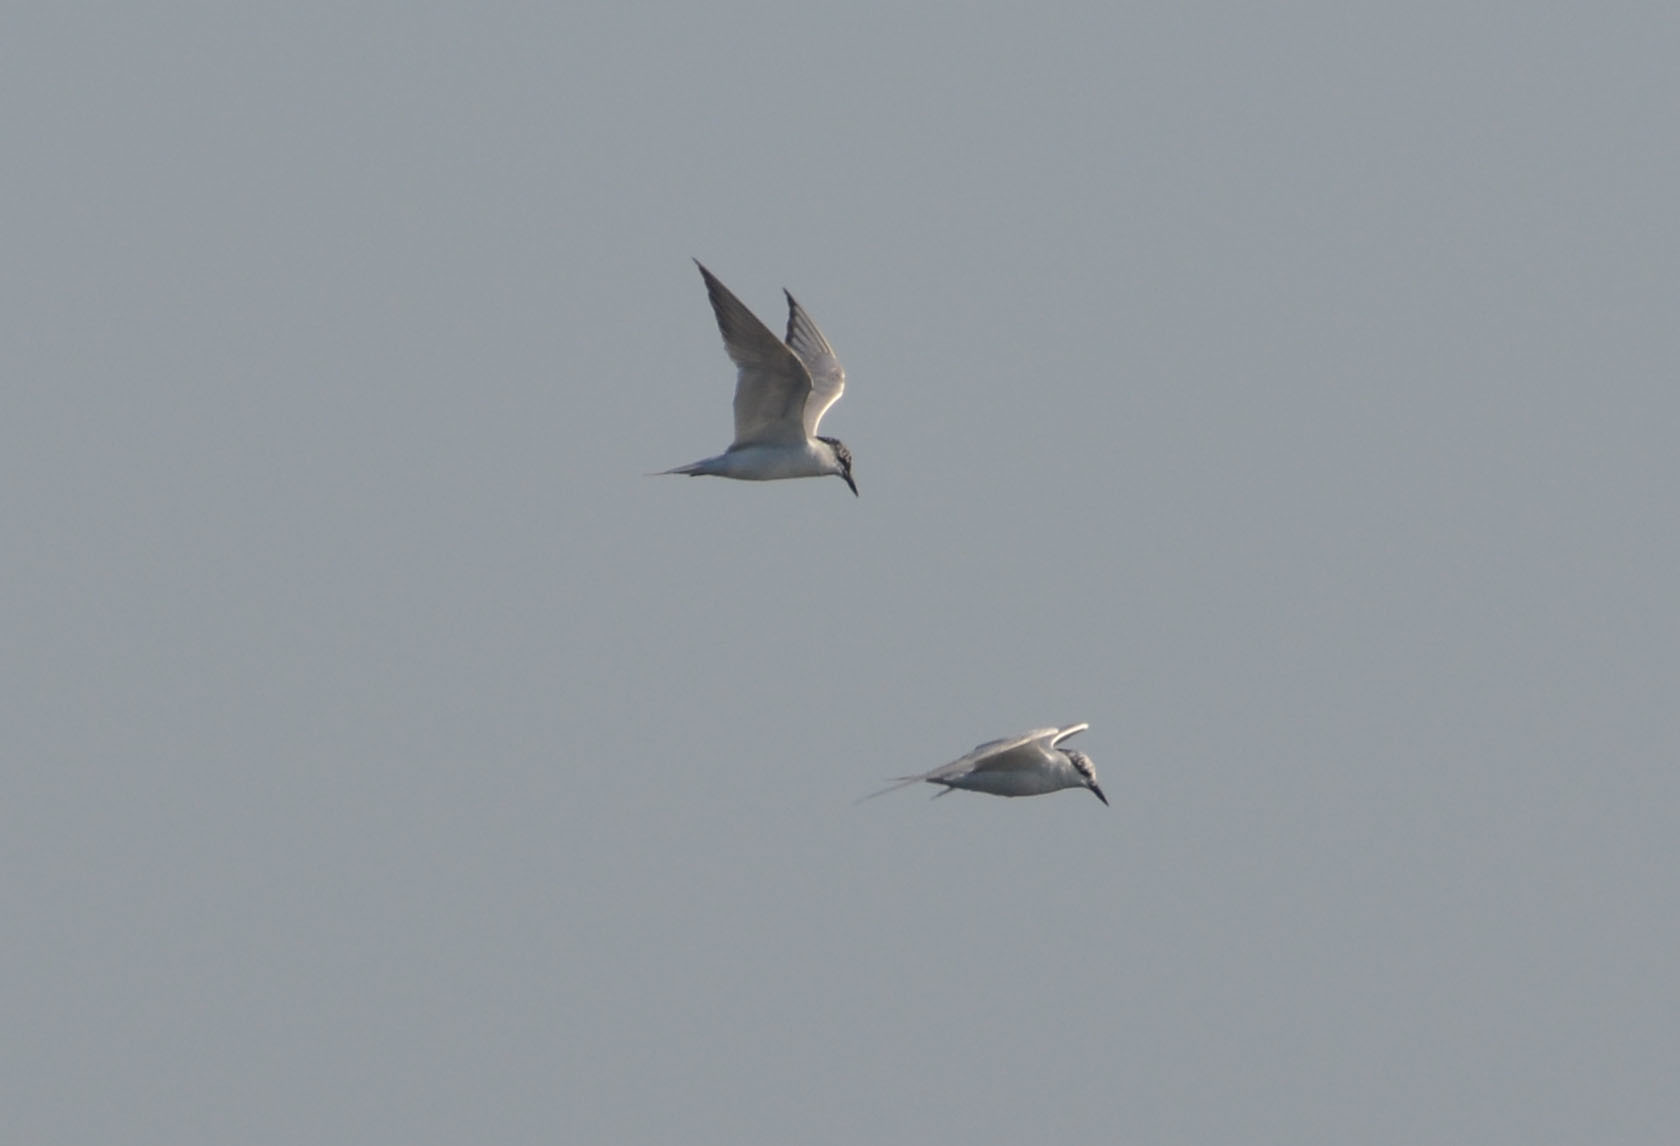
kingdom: Animalia
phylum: Chordata
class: Aves
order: Charadriiformes
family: Laridae
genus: Gelochelidon
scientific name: Gelochelidon nilotica
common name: Gull-billed tern
